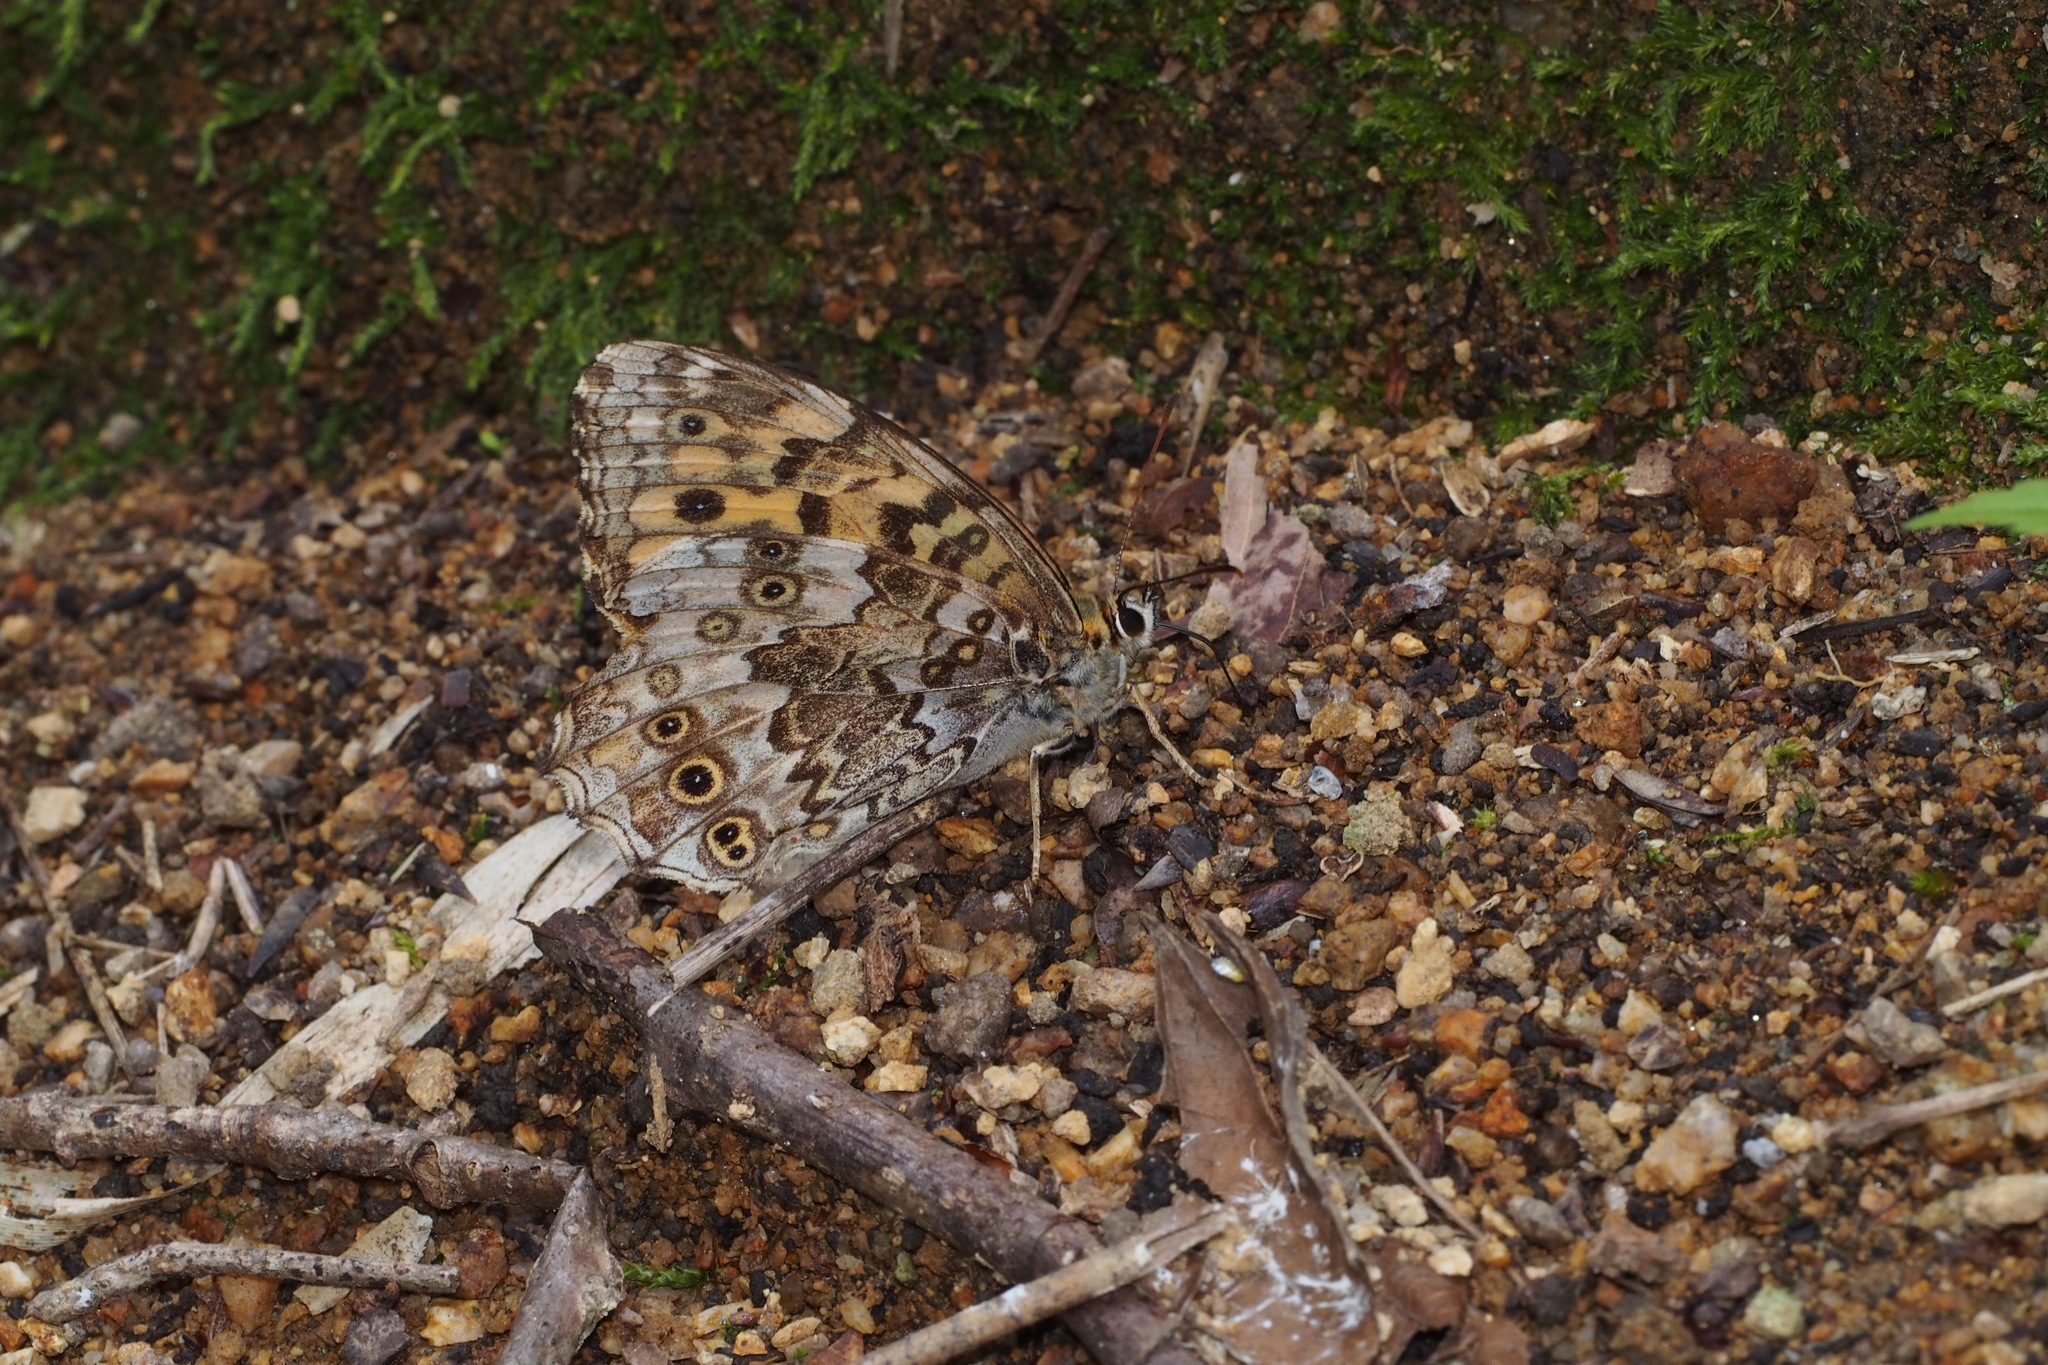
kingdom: Animalia
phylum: Arthropoda
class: Insecta
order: Lepidoptera
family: Nymphalidae
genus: Neope
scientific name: Neope goschkevitschii
